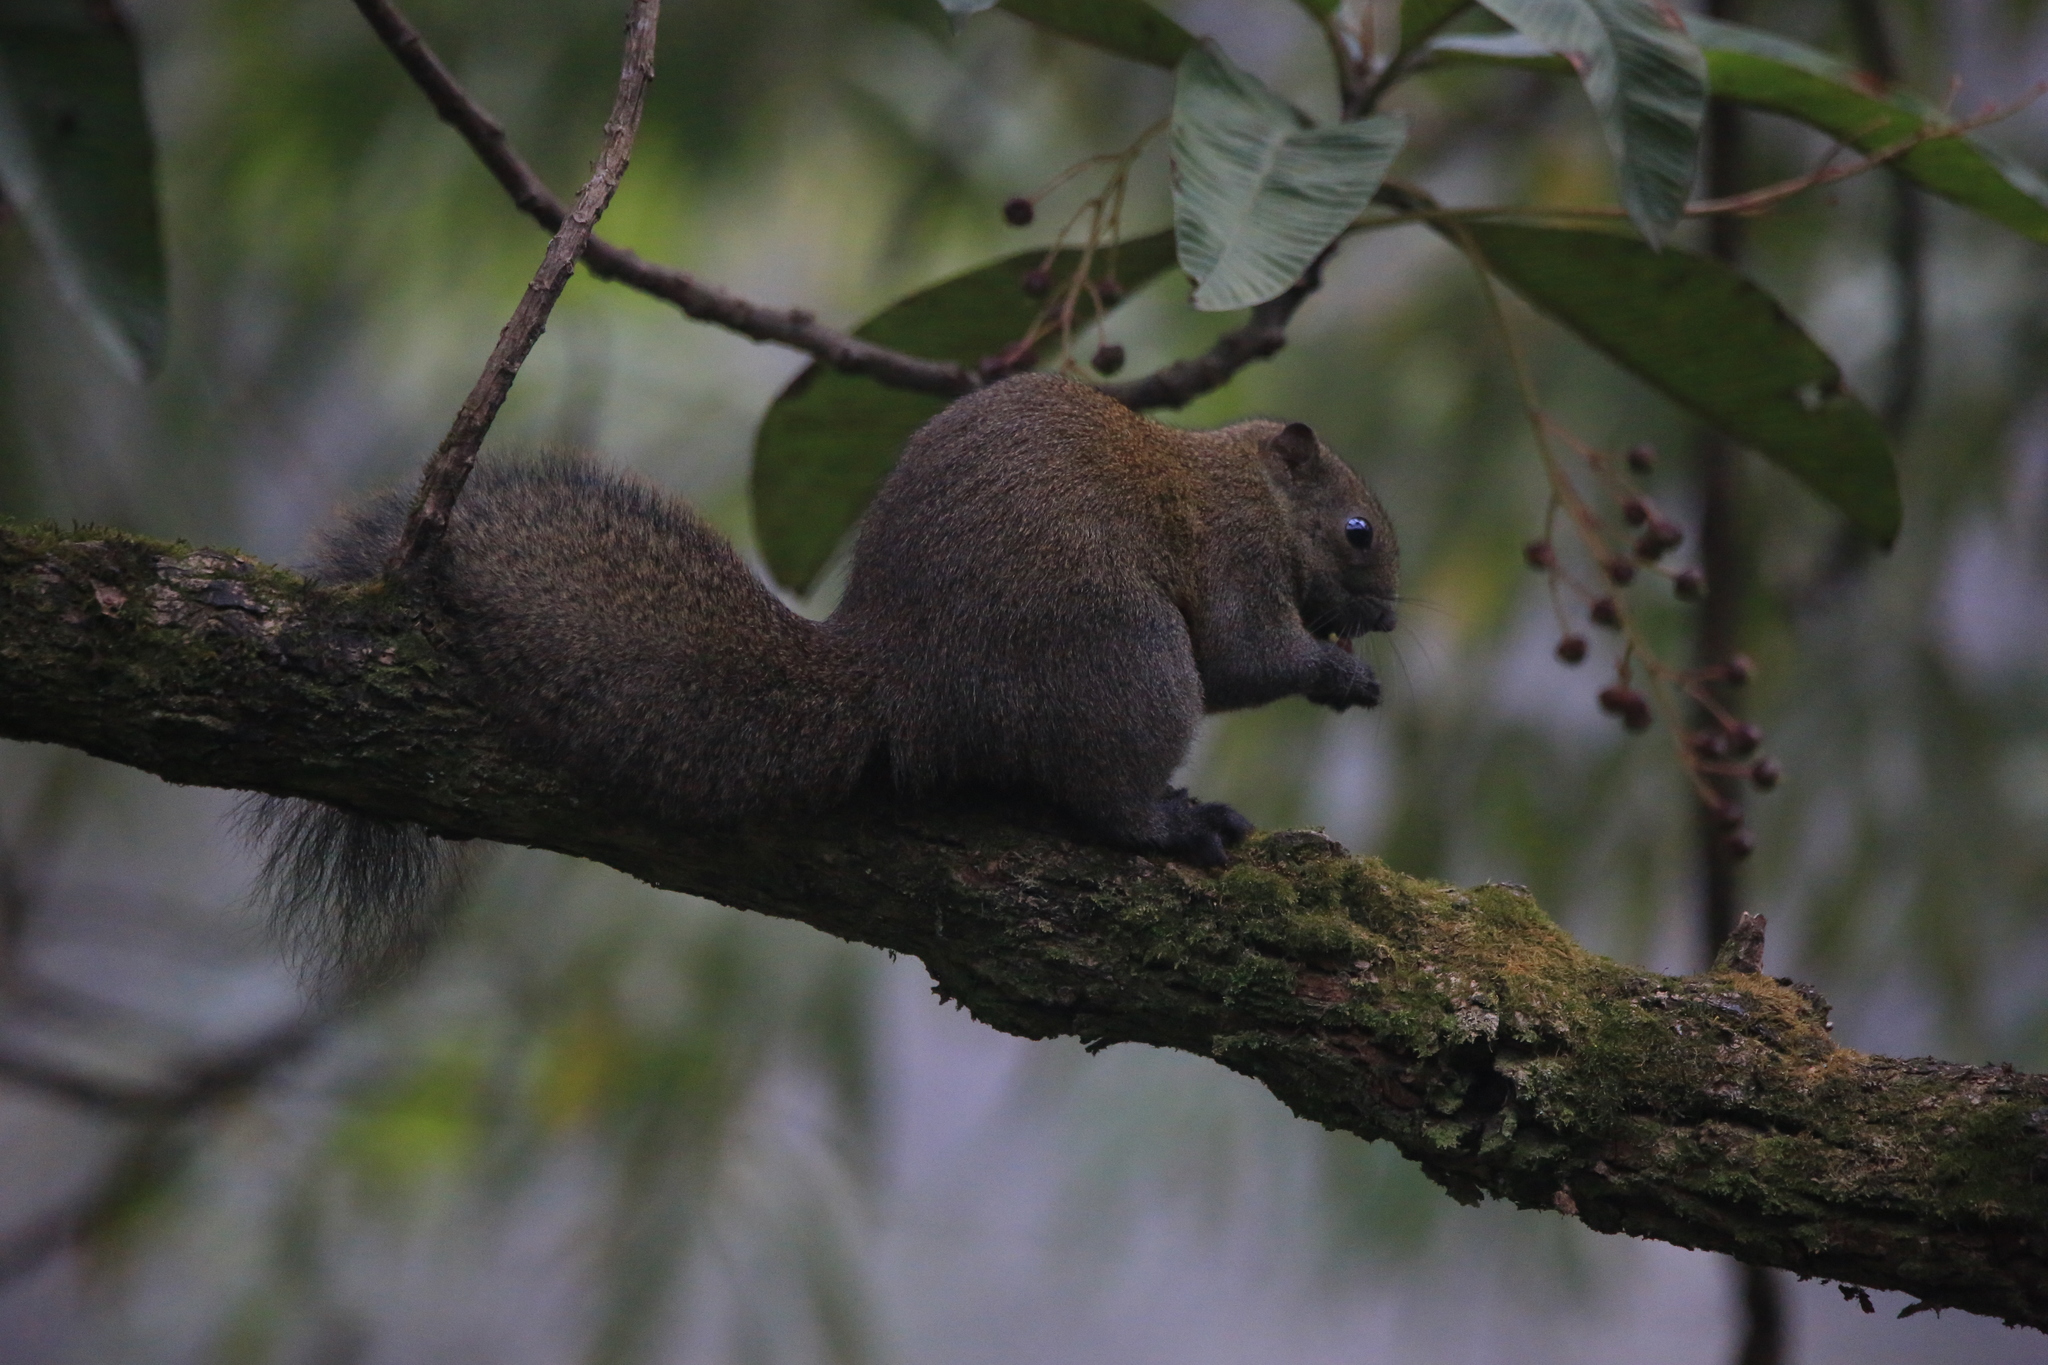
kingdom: Animalia
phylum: Chordata
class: Mammalia
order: Rodentia
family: Sciuridae
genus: Callosciurus
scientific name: Callosciurus erythraeus
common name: Pallas's squirrel
